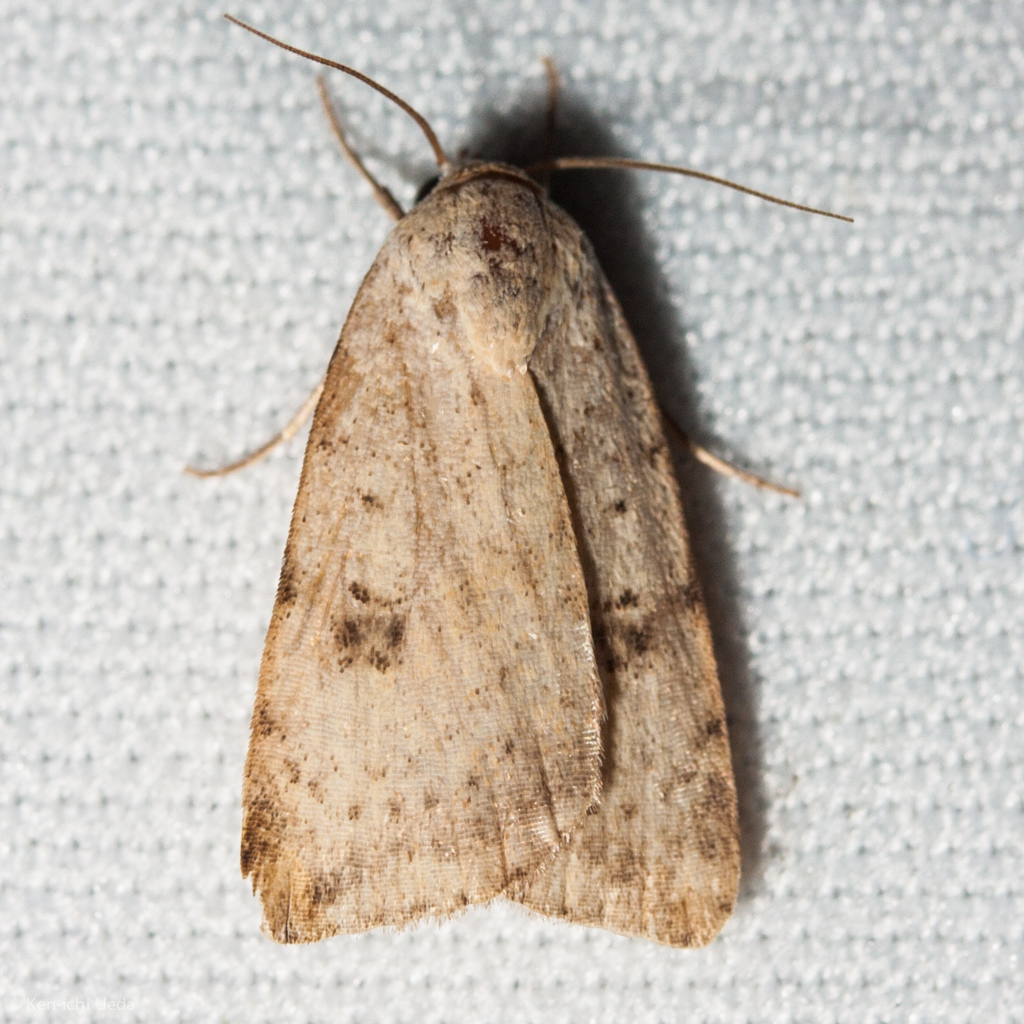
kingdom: Animalia
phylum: Arthropoda
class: Insecta
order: Lepidoptera
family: Noctuidae
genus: Micrathetis
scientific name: Micrathetis triplex
